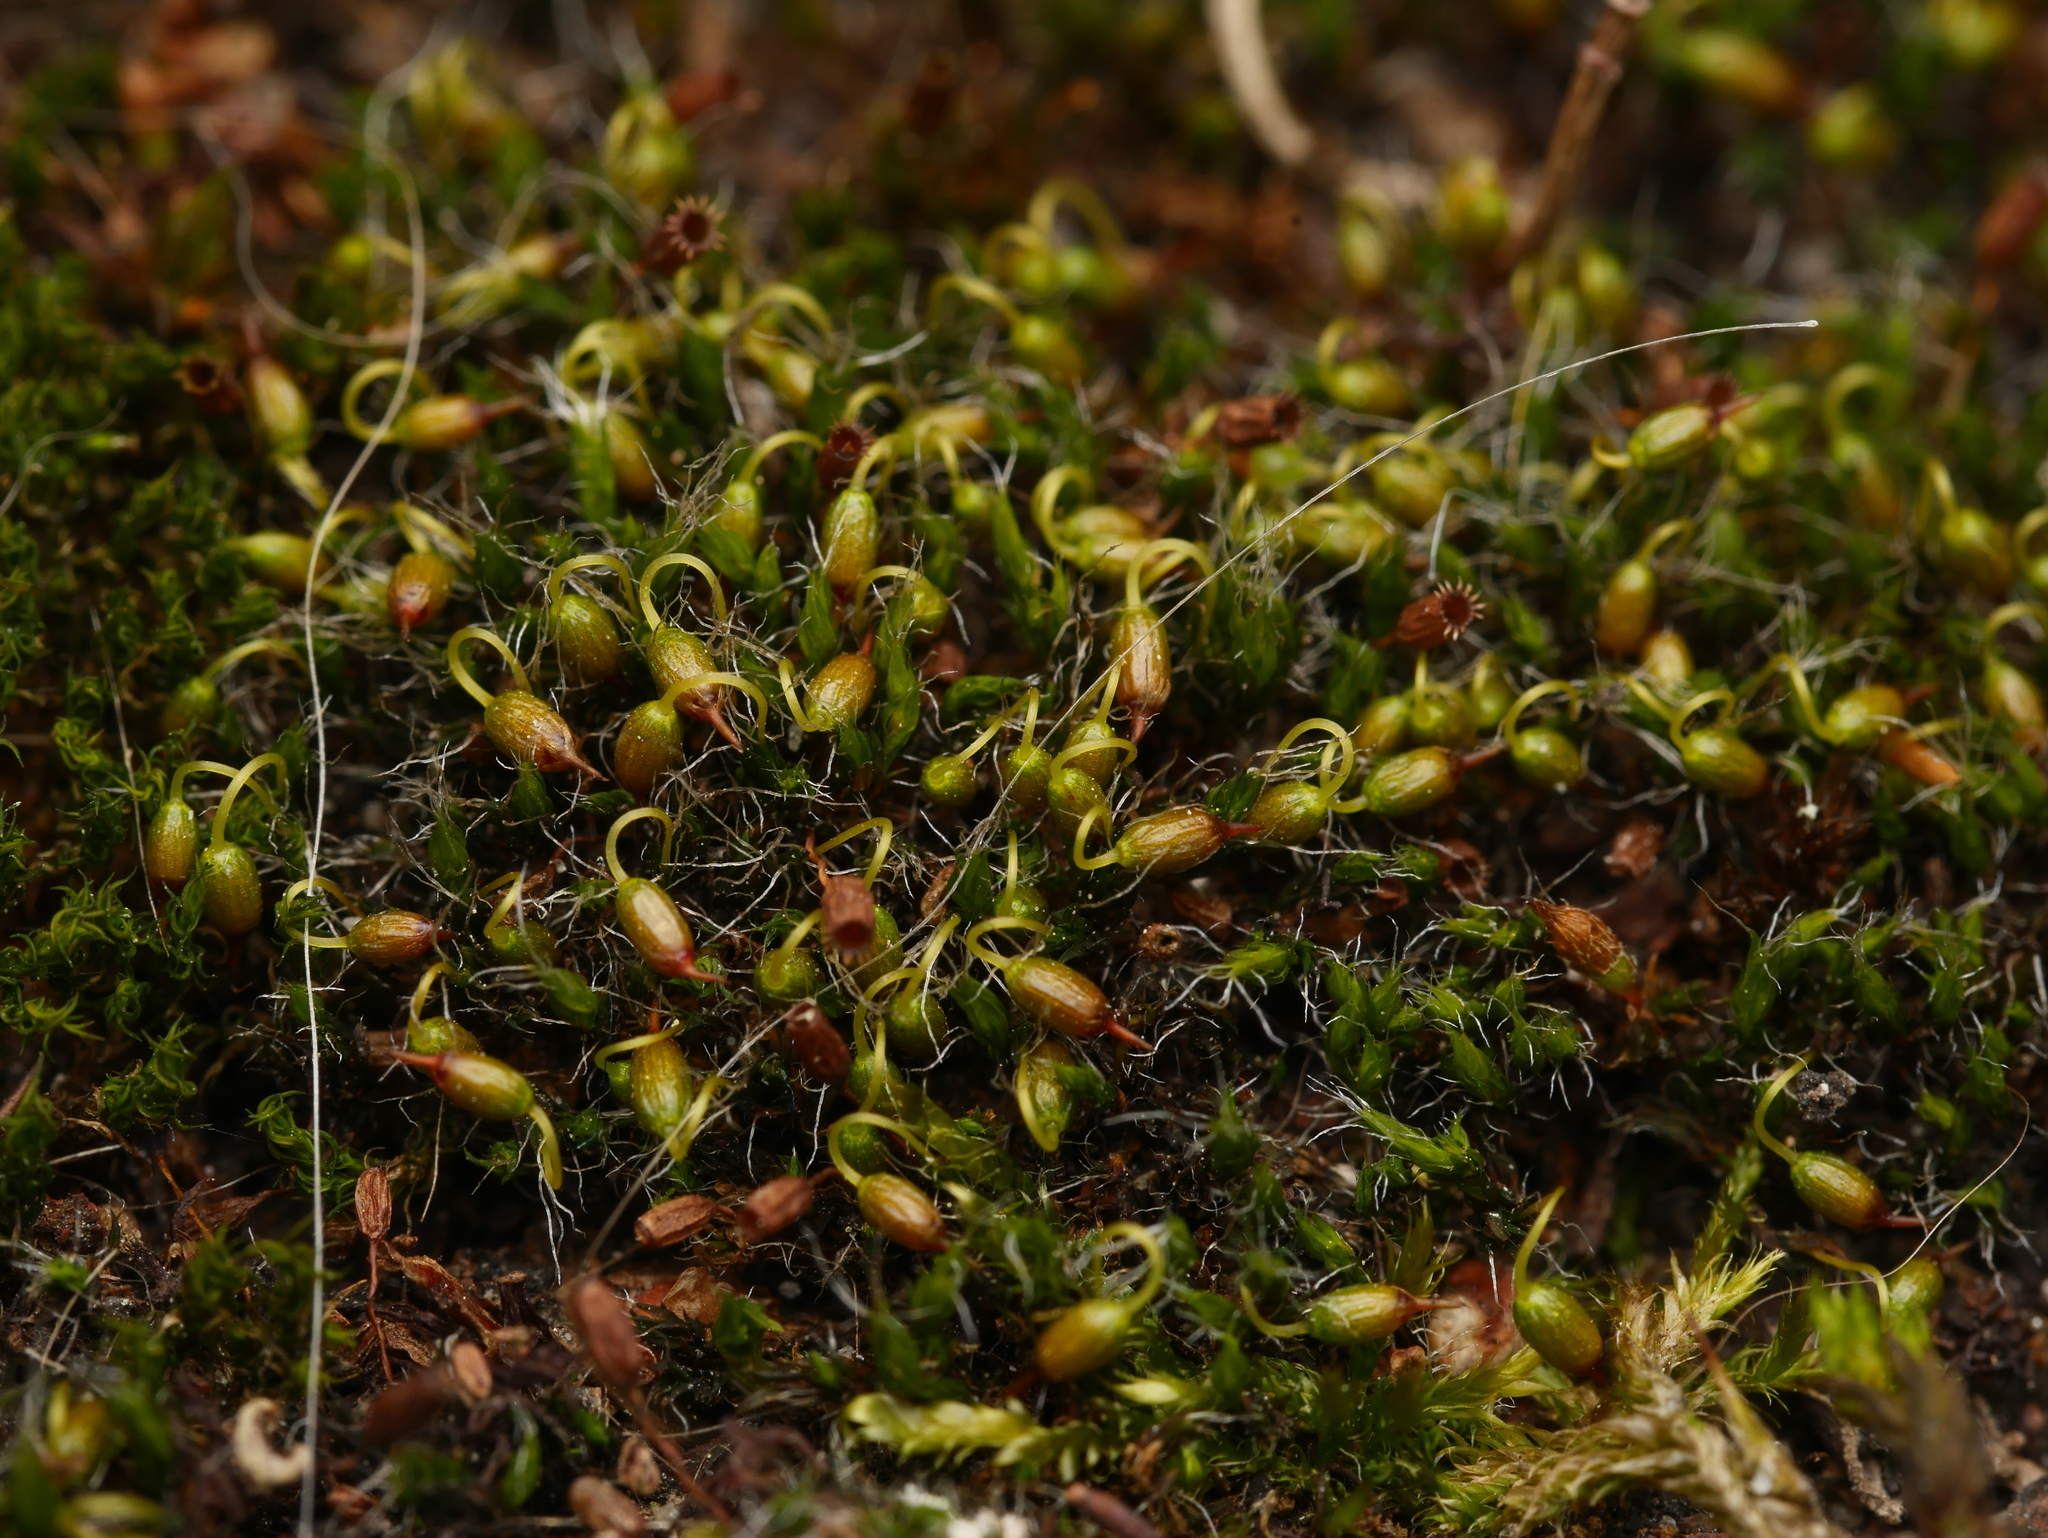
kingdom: Plantae
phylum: Bryophyta
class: Bryopsida
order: Grimmiales
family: Grimmiaceae
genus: Grimmia
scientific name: Grimmia pulvinata
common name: Grey-cushioned grimmia
